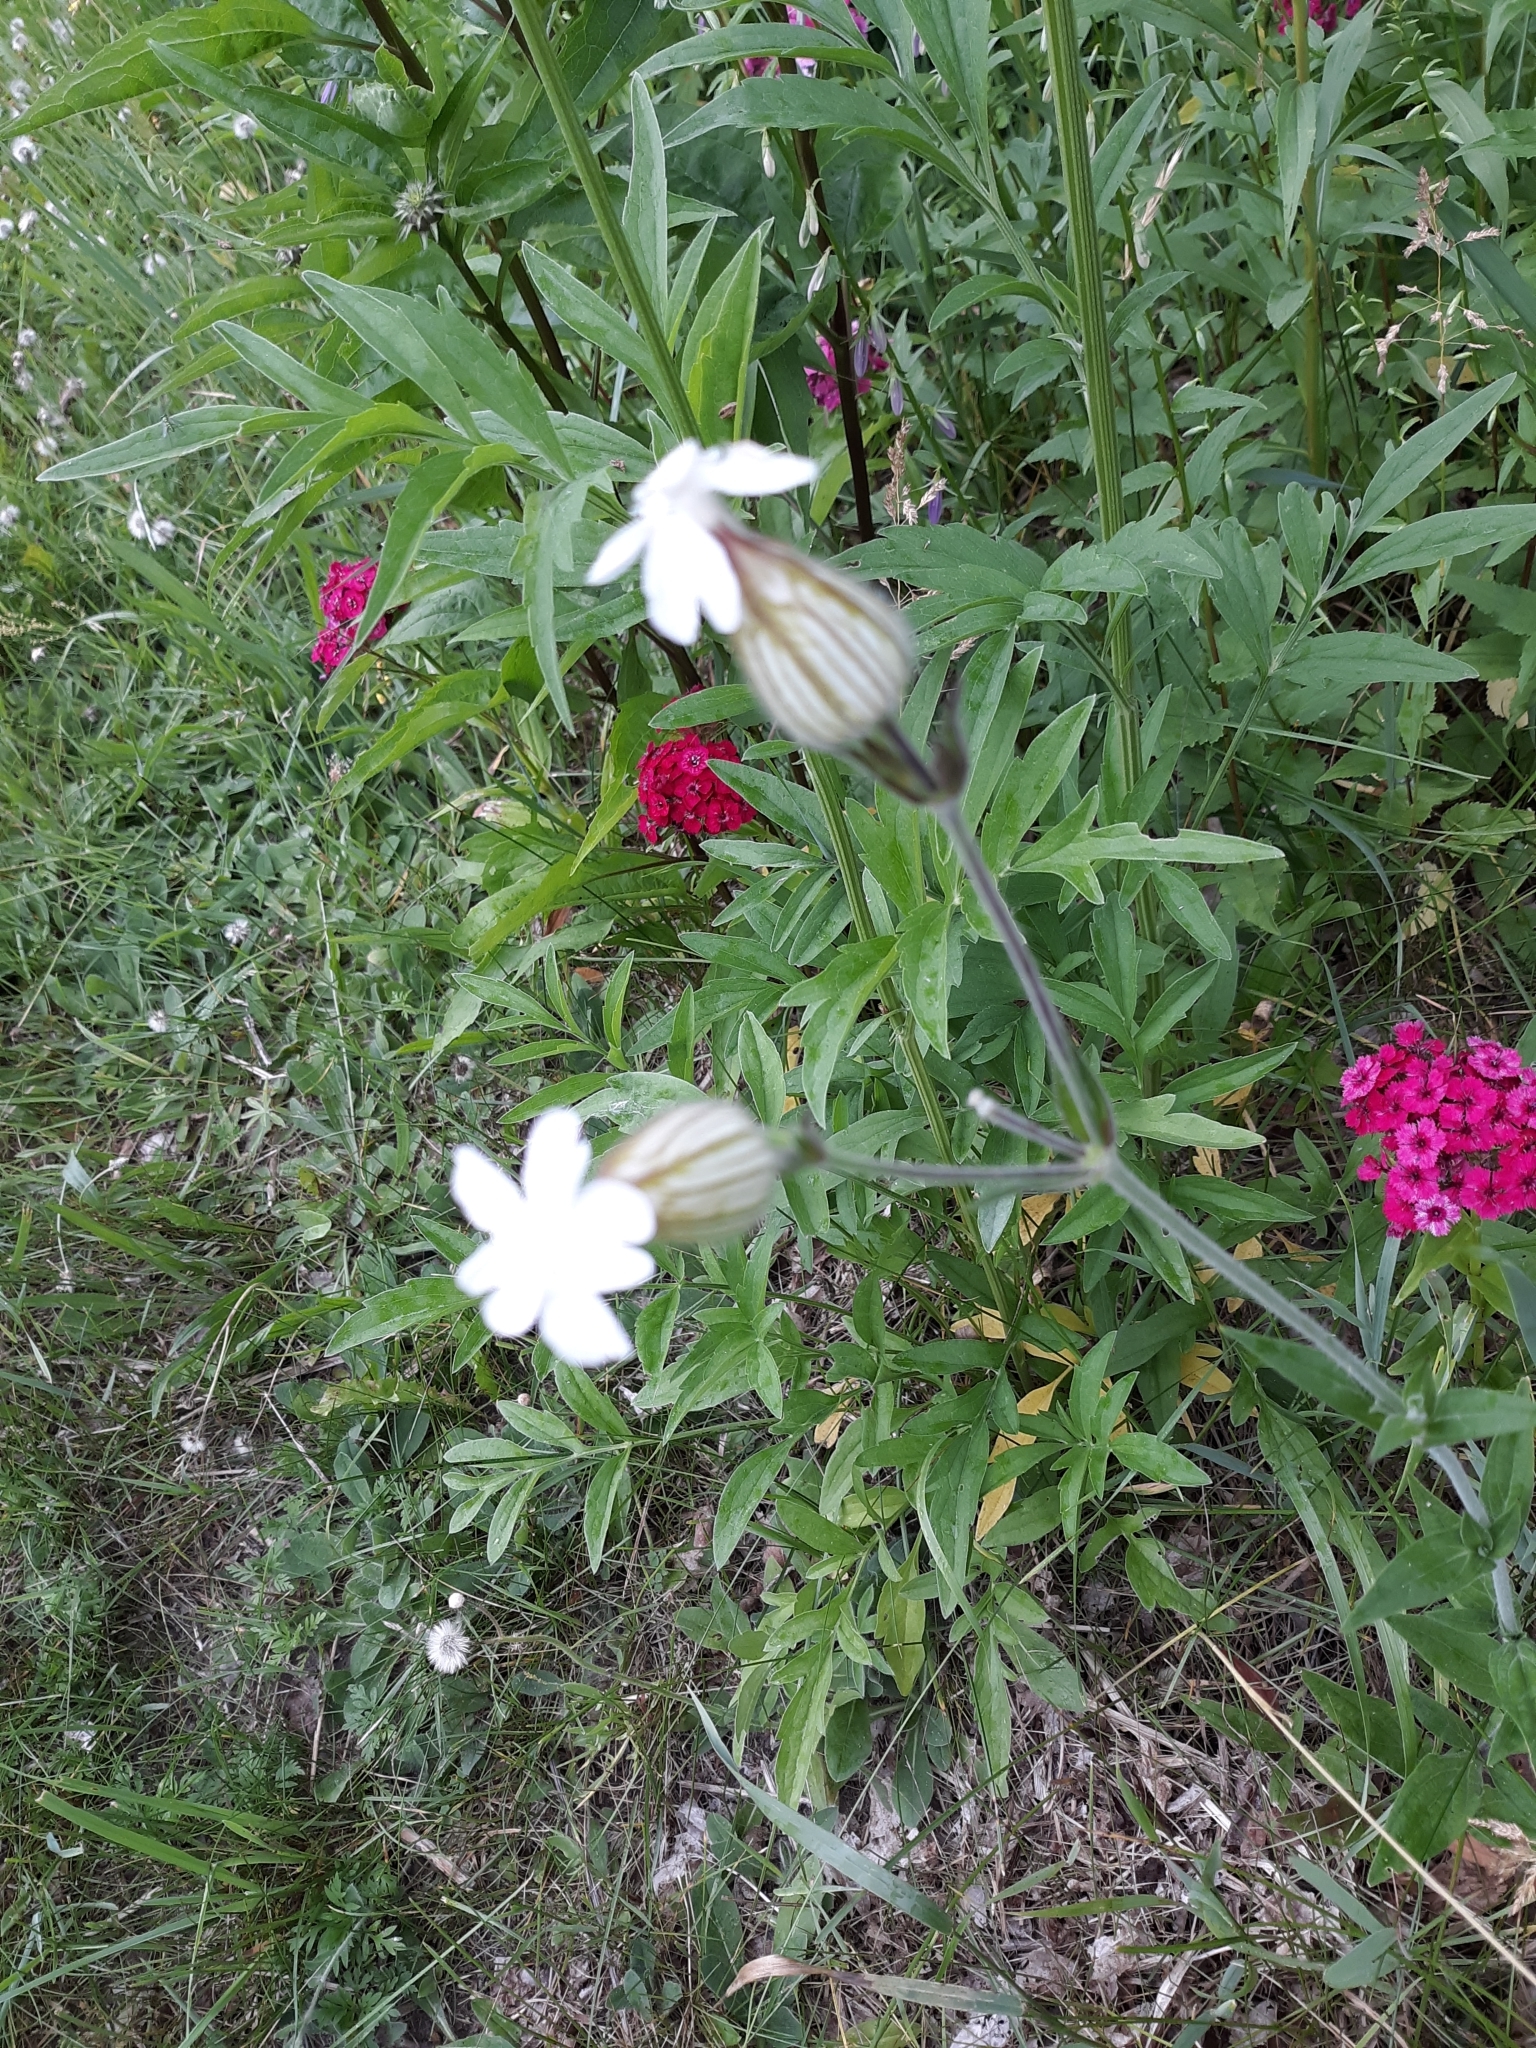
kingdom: Plantae
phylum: Tracheophyta
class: Magnoliopsida
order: Caryophyllales
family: Caryophyllaceae
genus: Silene
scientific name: Silene latifolia
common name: White campion
